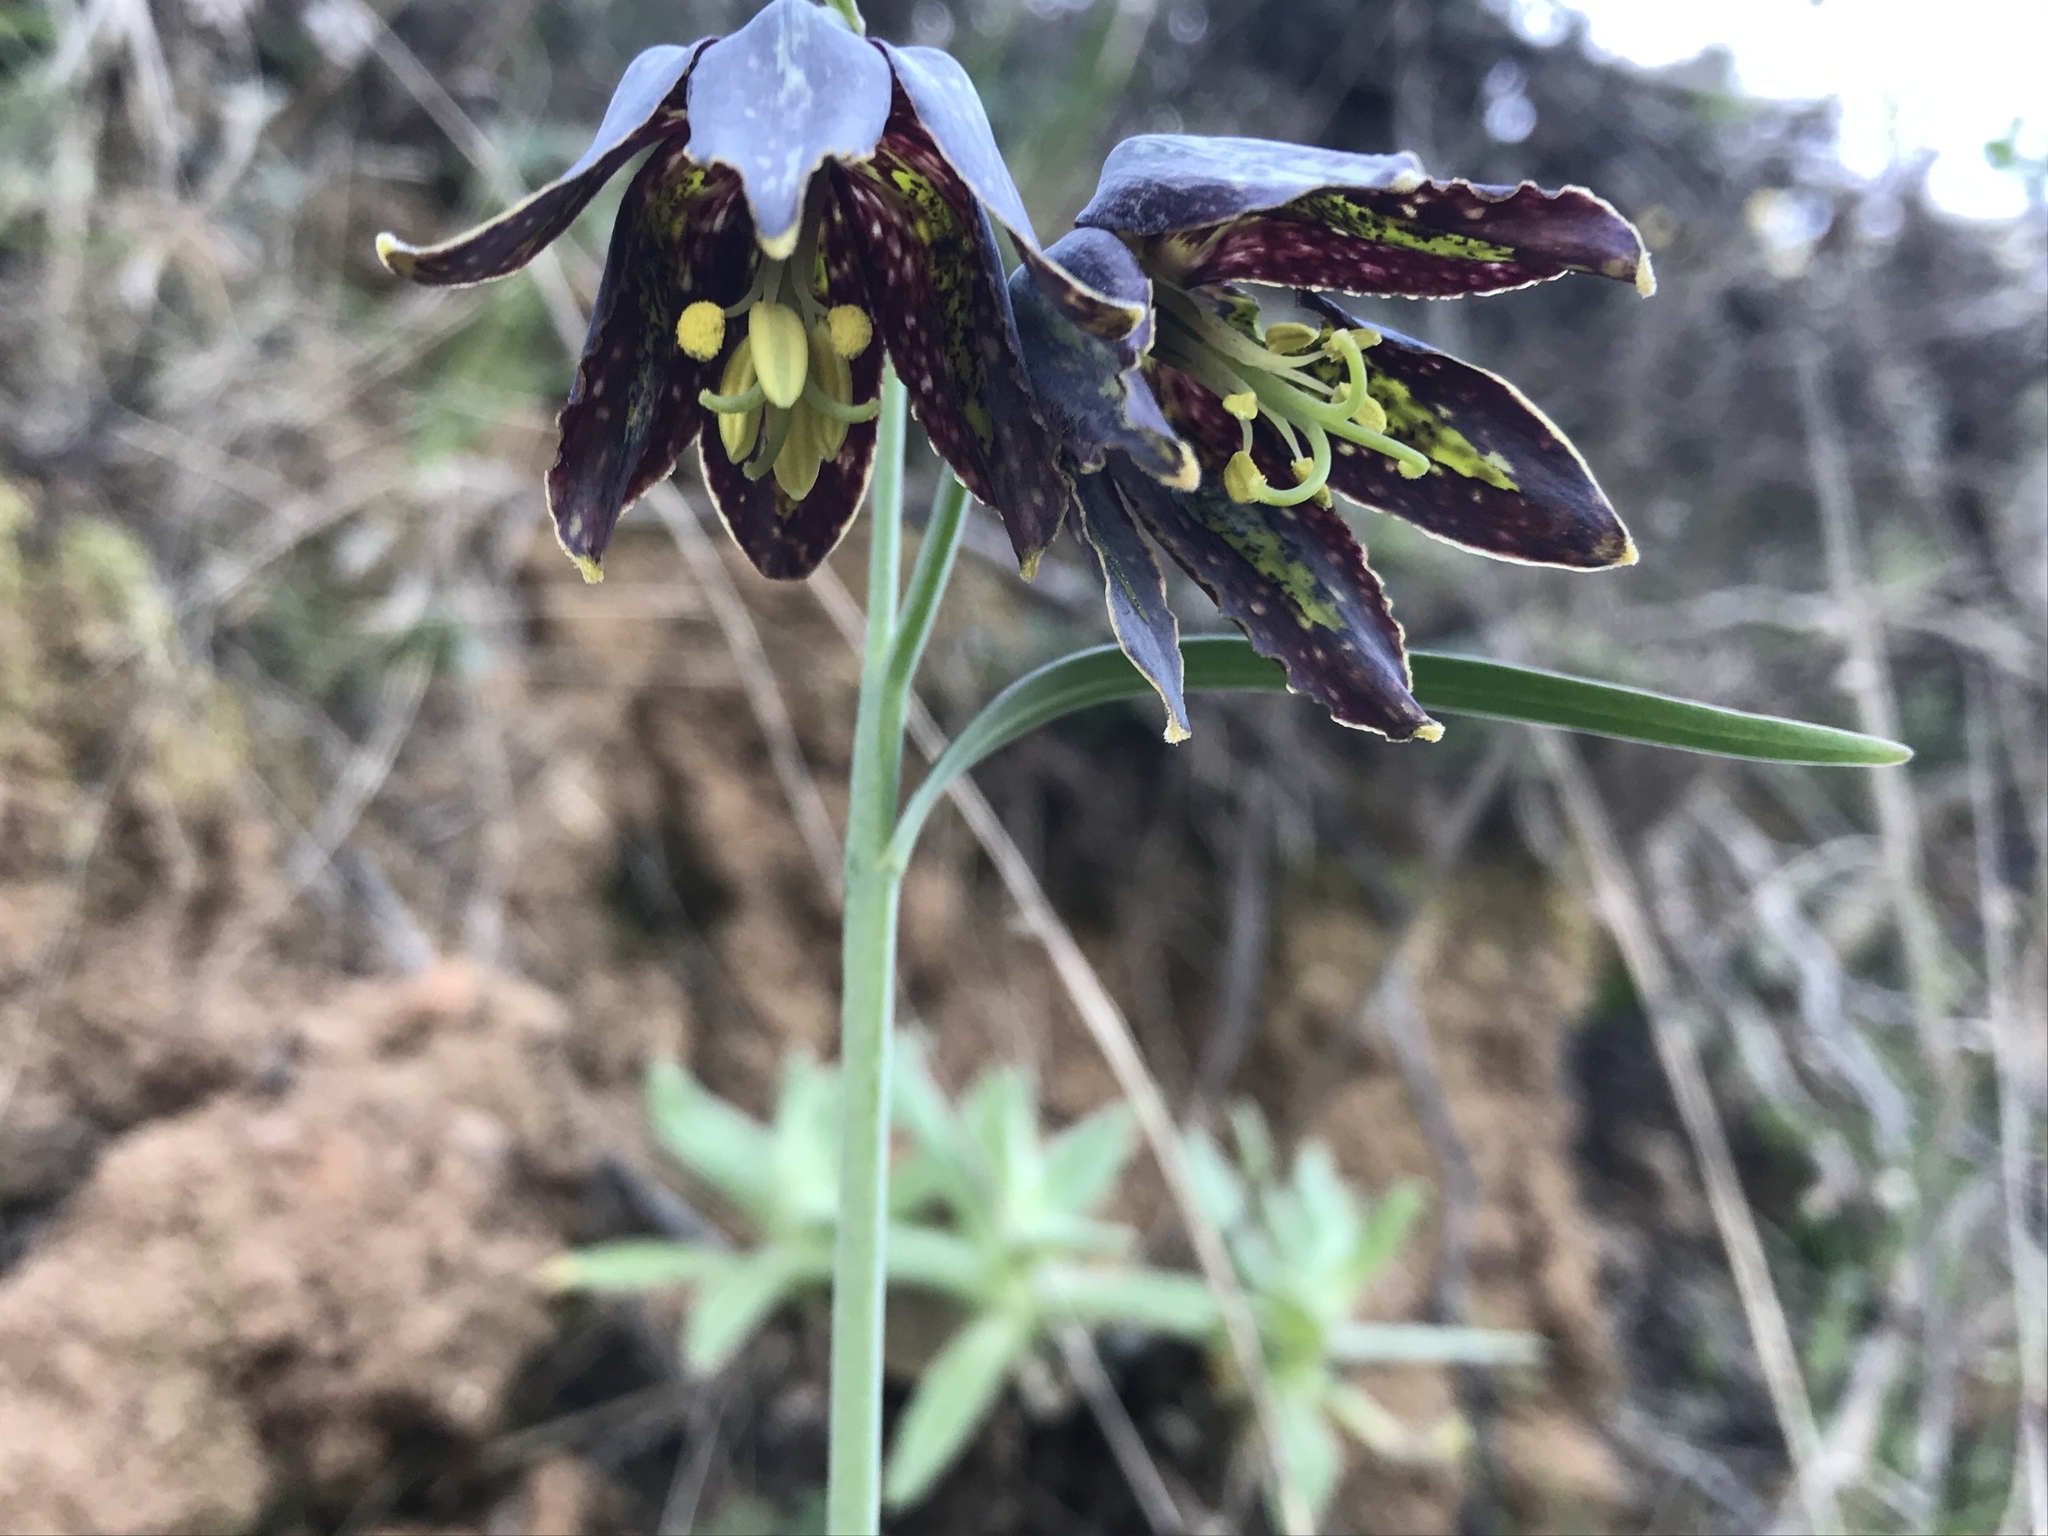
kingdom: Plantae
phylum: Tracheophyta
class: Liliopsida
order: Liliales
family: Liliaceae
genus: Fritillaria
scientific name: Fritillaria affinis
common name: Ojai fritillary
